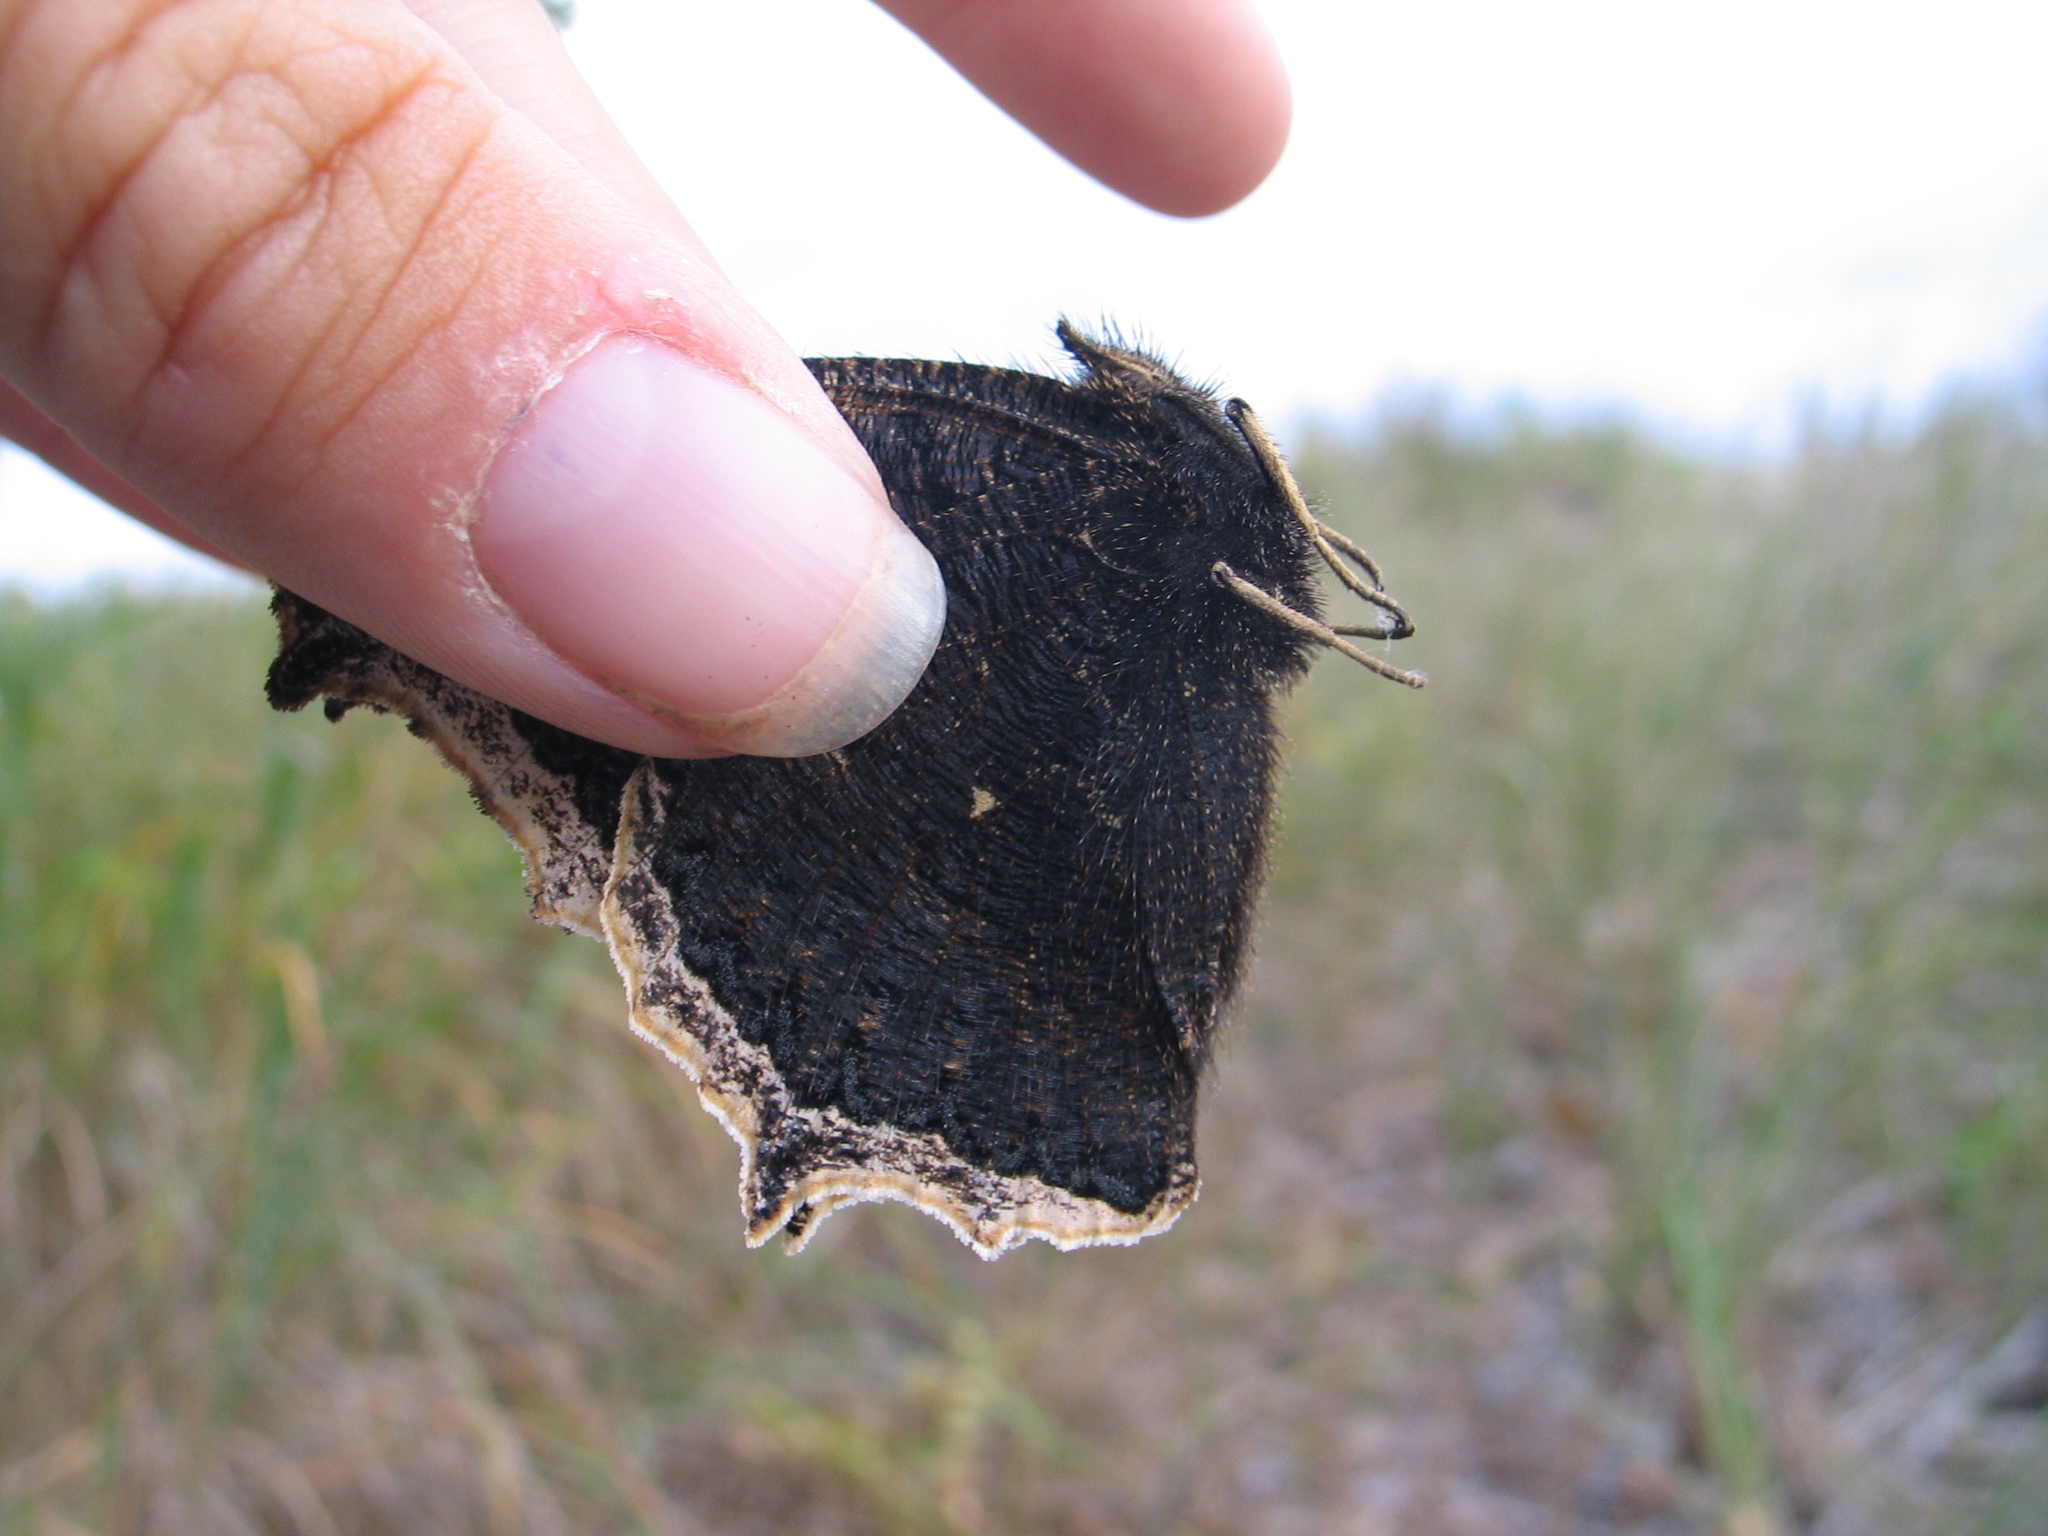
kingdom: Animalia
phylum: Arthropoda
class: Insecta
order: Lepidoptera
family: Nymphalidae
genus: Nymphalis
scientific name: Nymphalis antiopa
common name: Camberwell beauty
